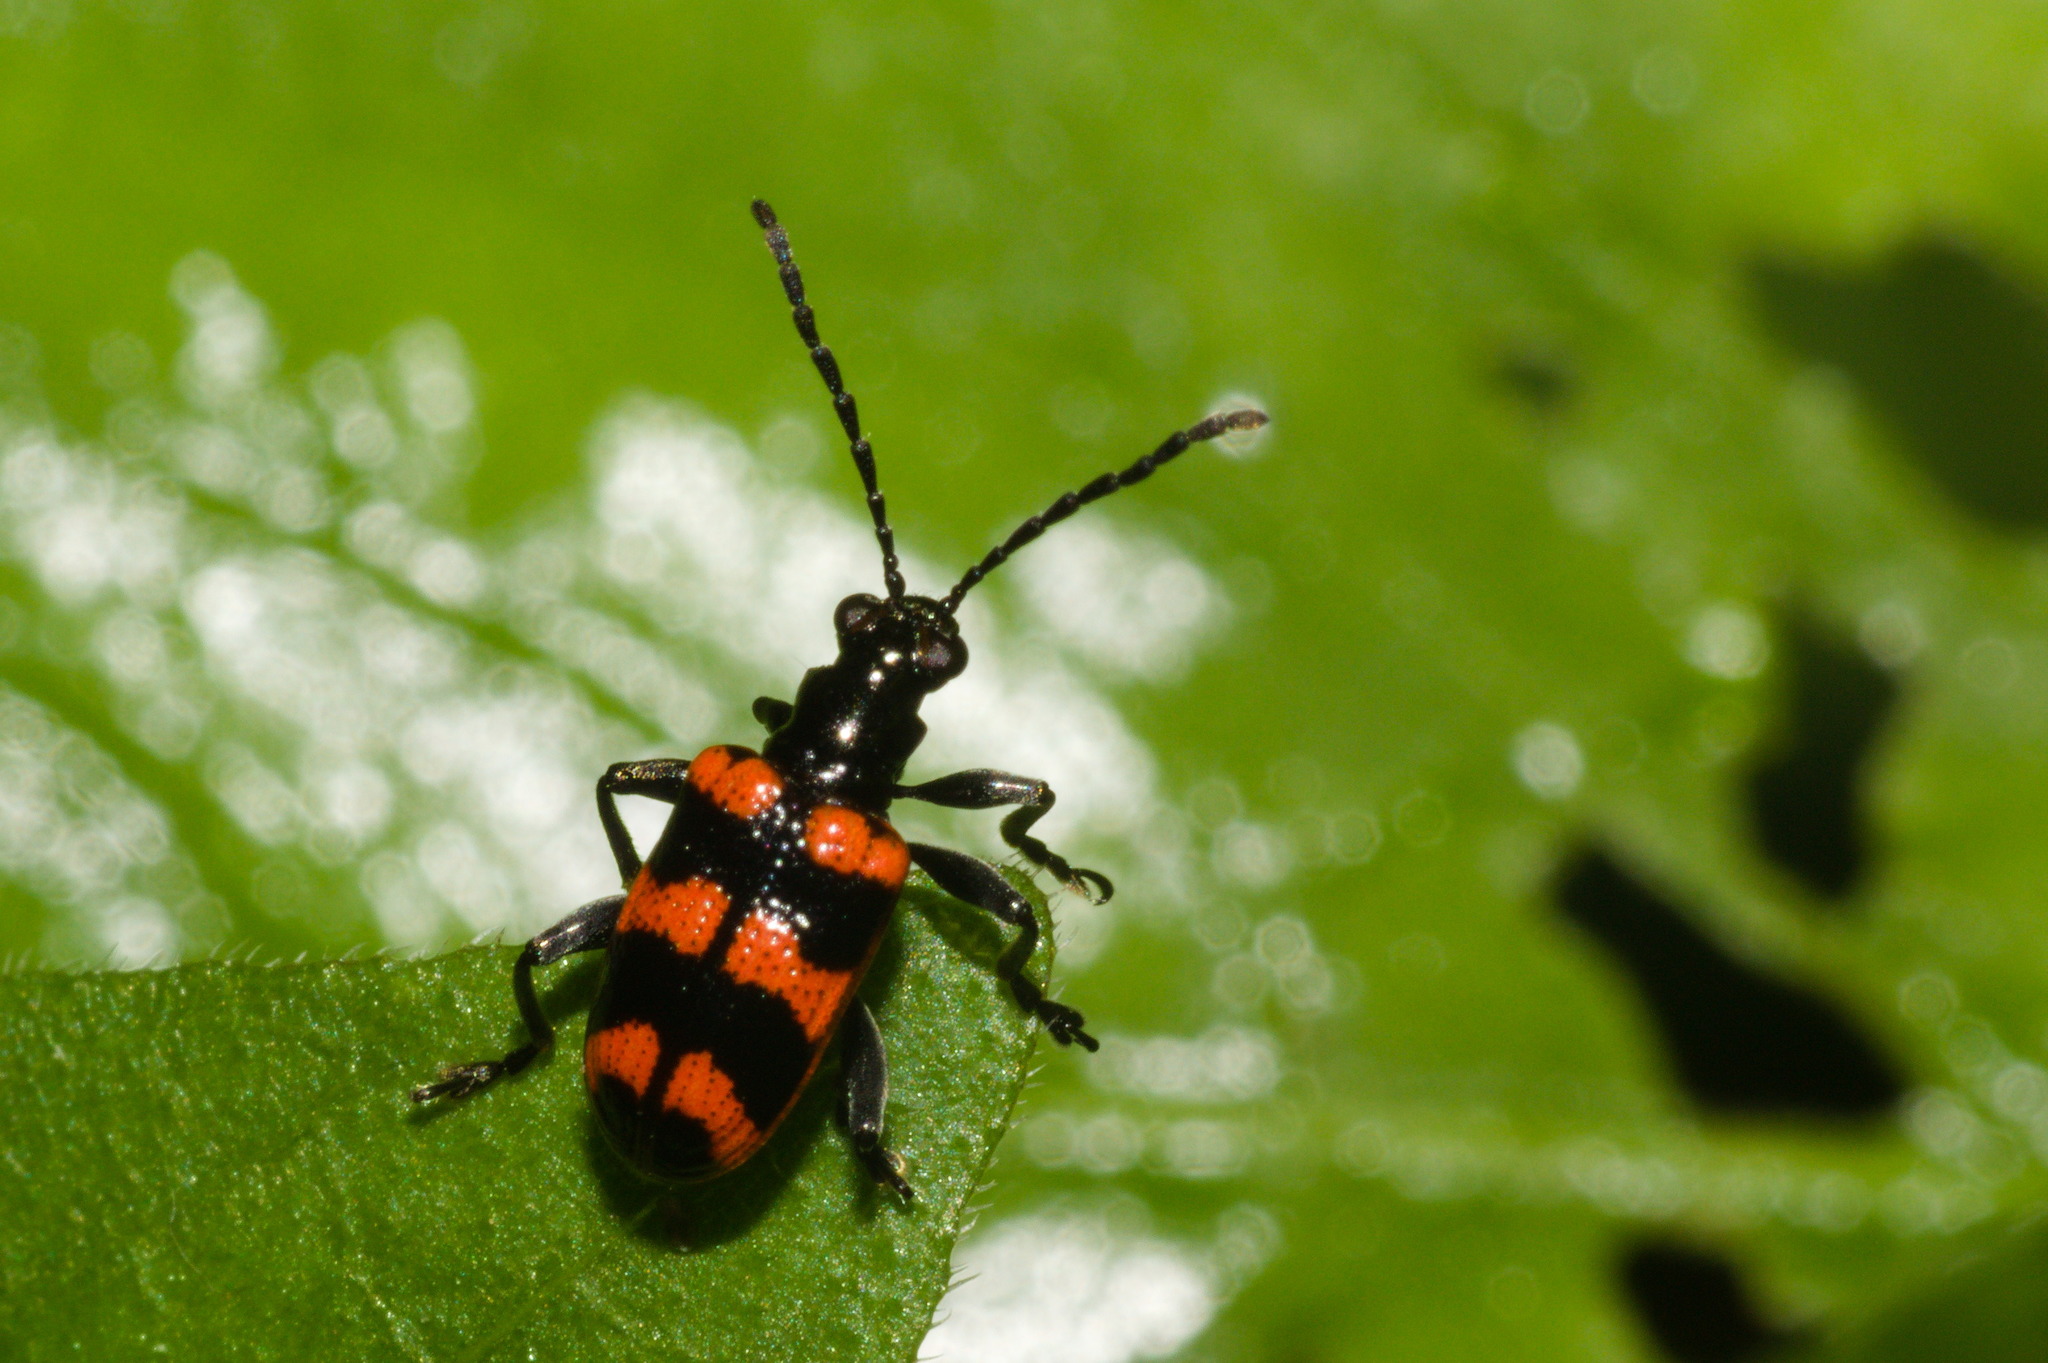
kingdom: Animalia
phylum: Arthropoda
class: Insecta
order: Coleoptera
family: Chrysomelidae
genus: Neolema
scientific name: Neolema
